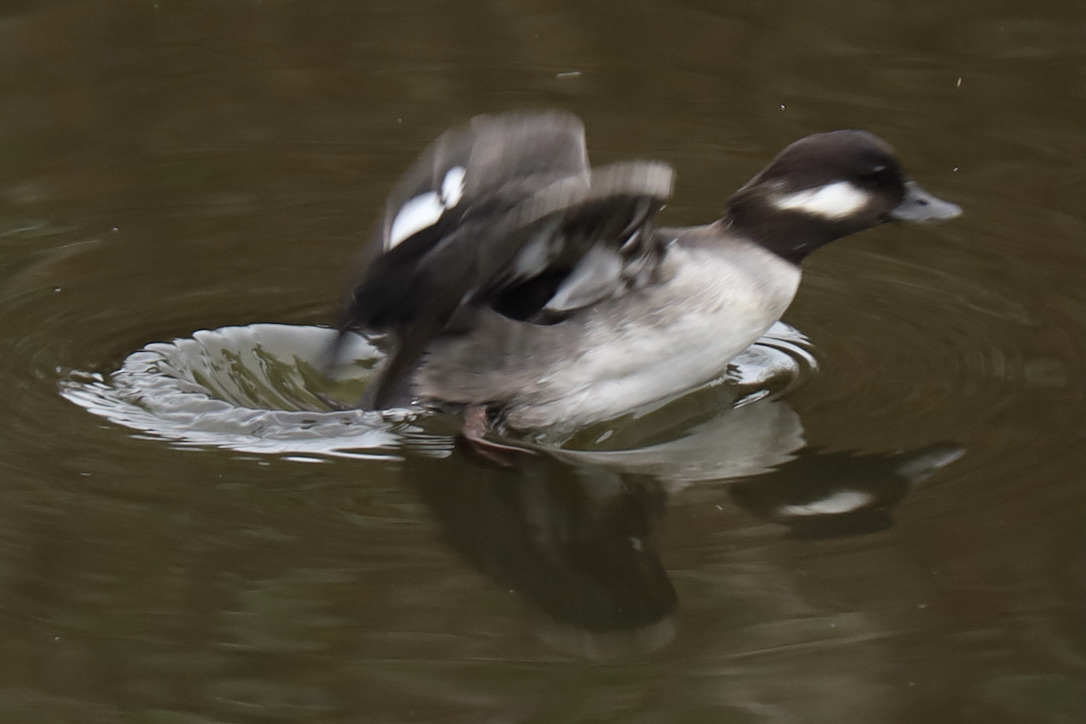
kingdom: Animalia
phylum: Chordata
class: Aves
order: Anseriformes
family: Anatidae
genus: Bucephala
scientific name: Bucephala albeola
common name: Bufflehead
